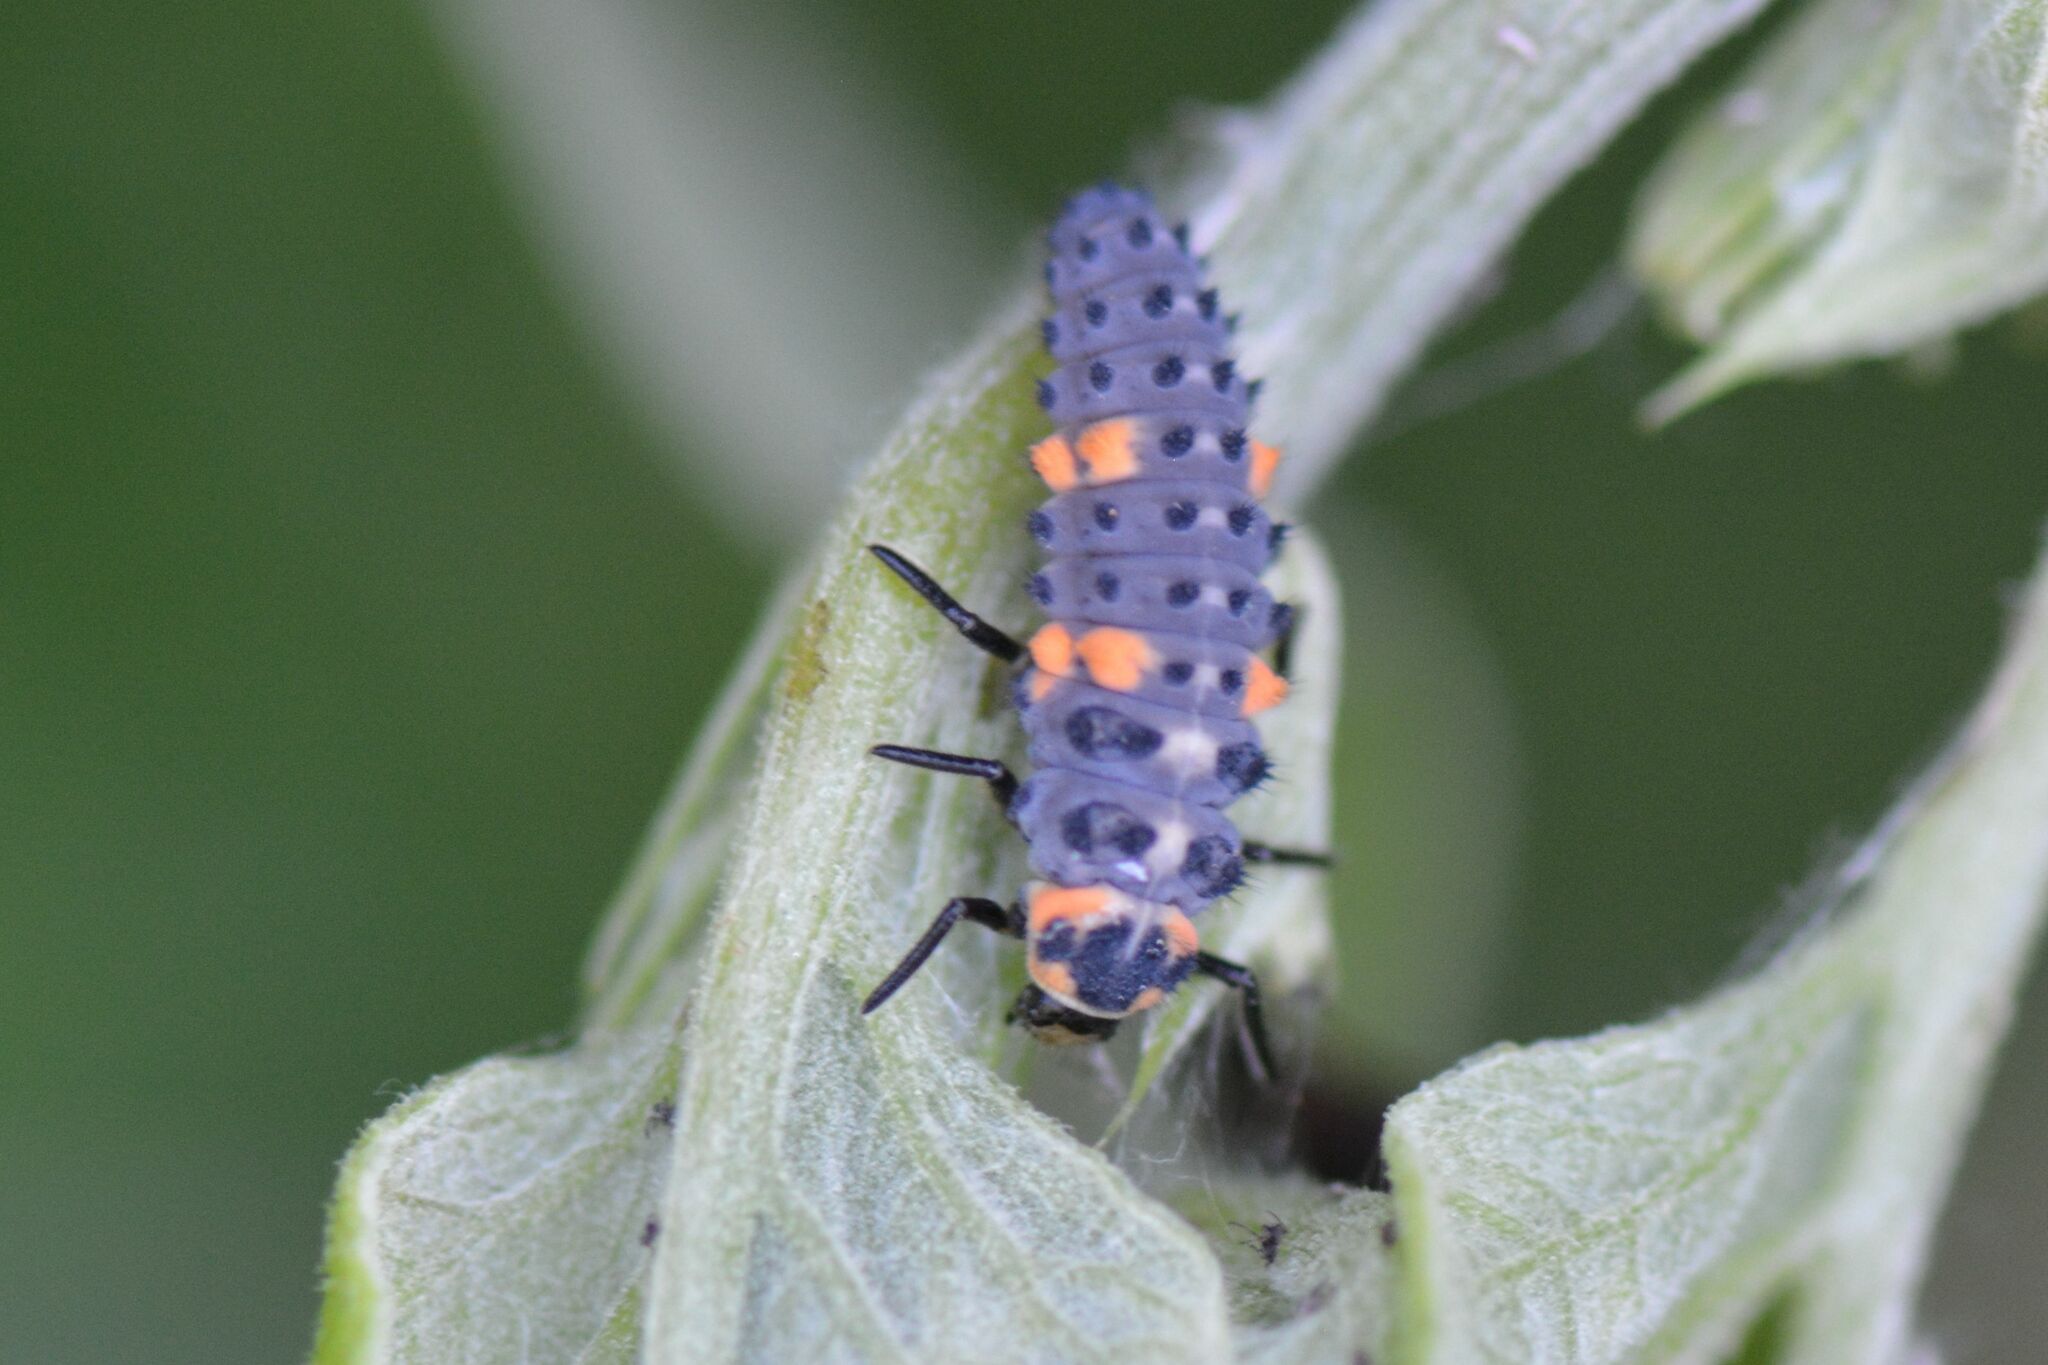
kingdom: Animalia
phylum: Arthropoda
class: Insecta
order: Coleoptera
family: Coccinellidae
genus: Coccinella
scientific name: Coccinella septempunctata
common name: Sevenspotted lady beetle
